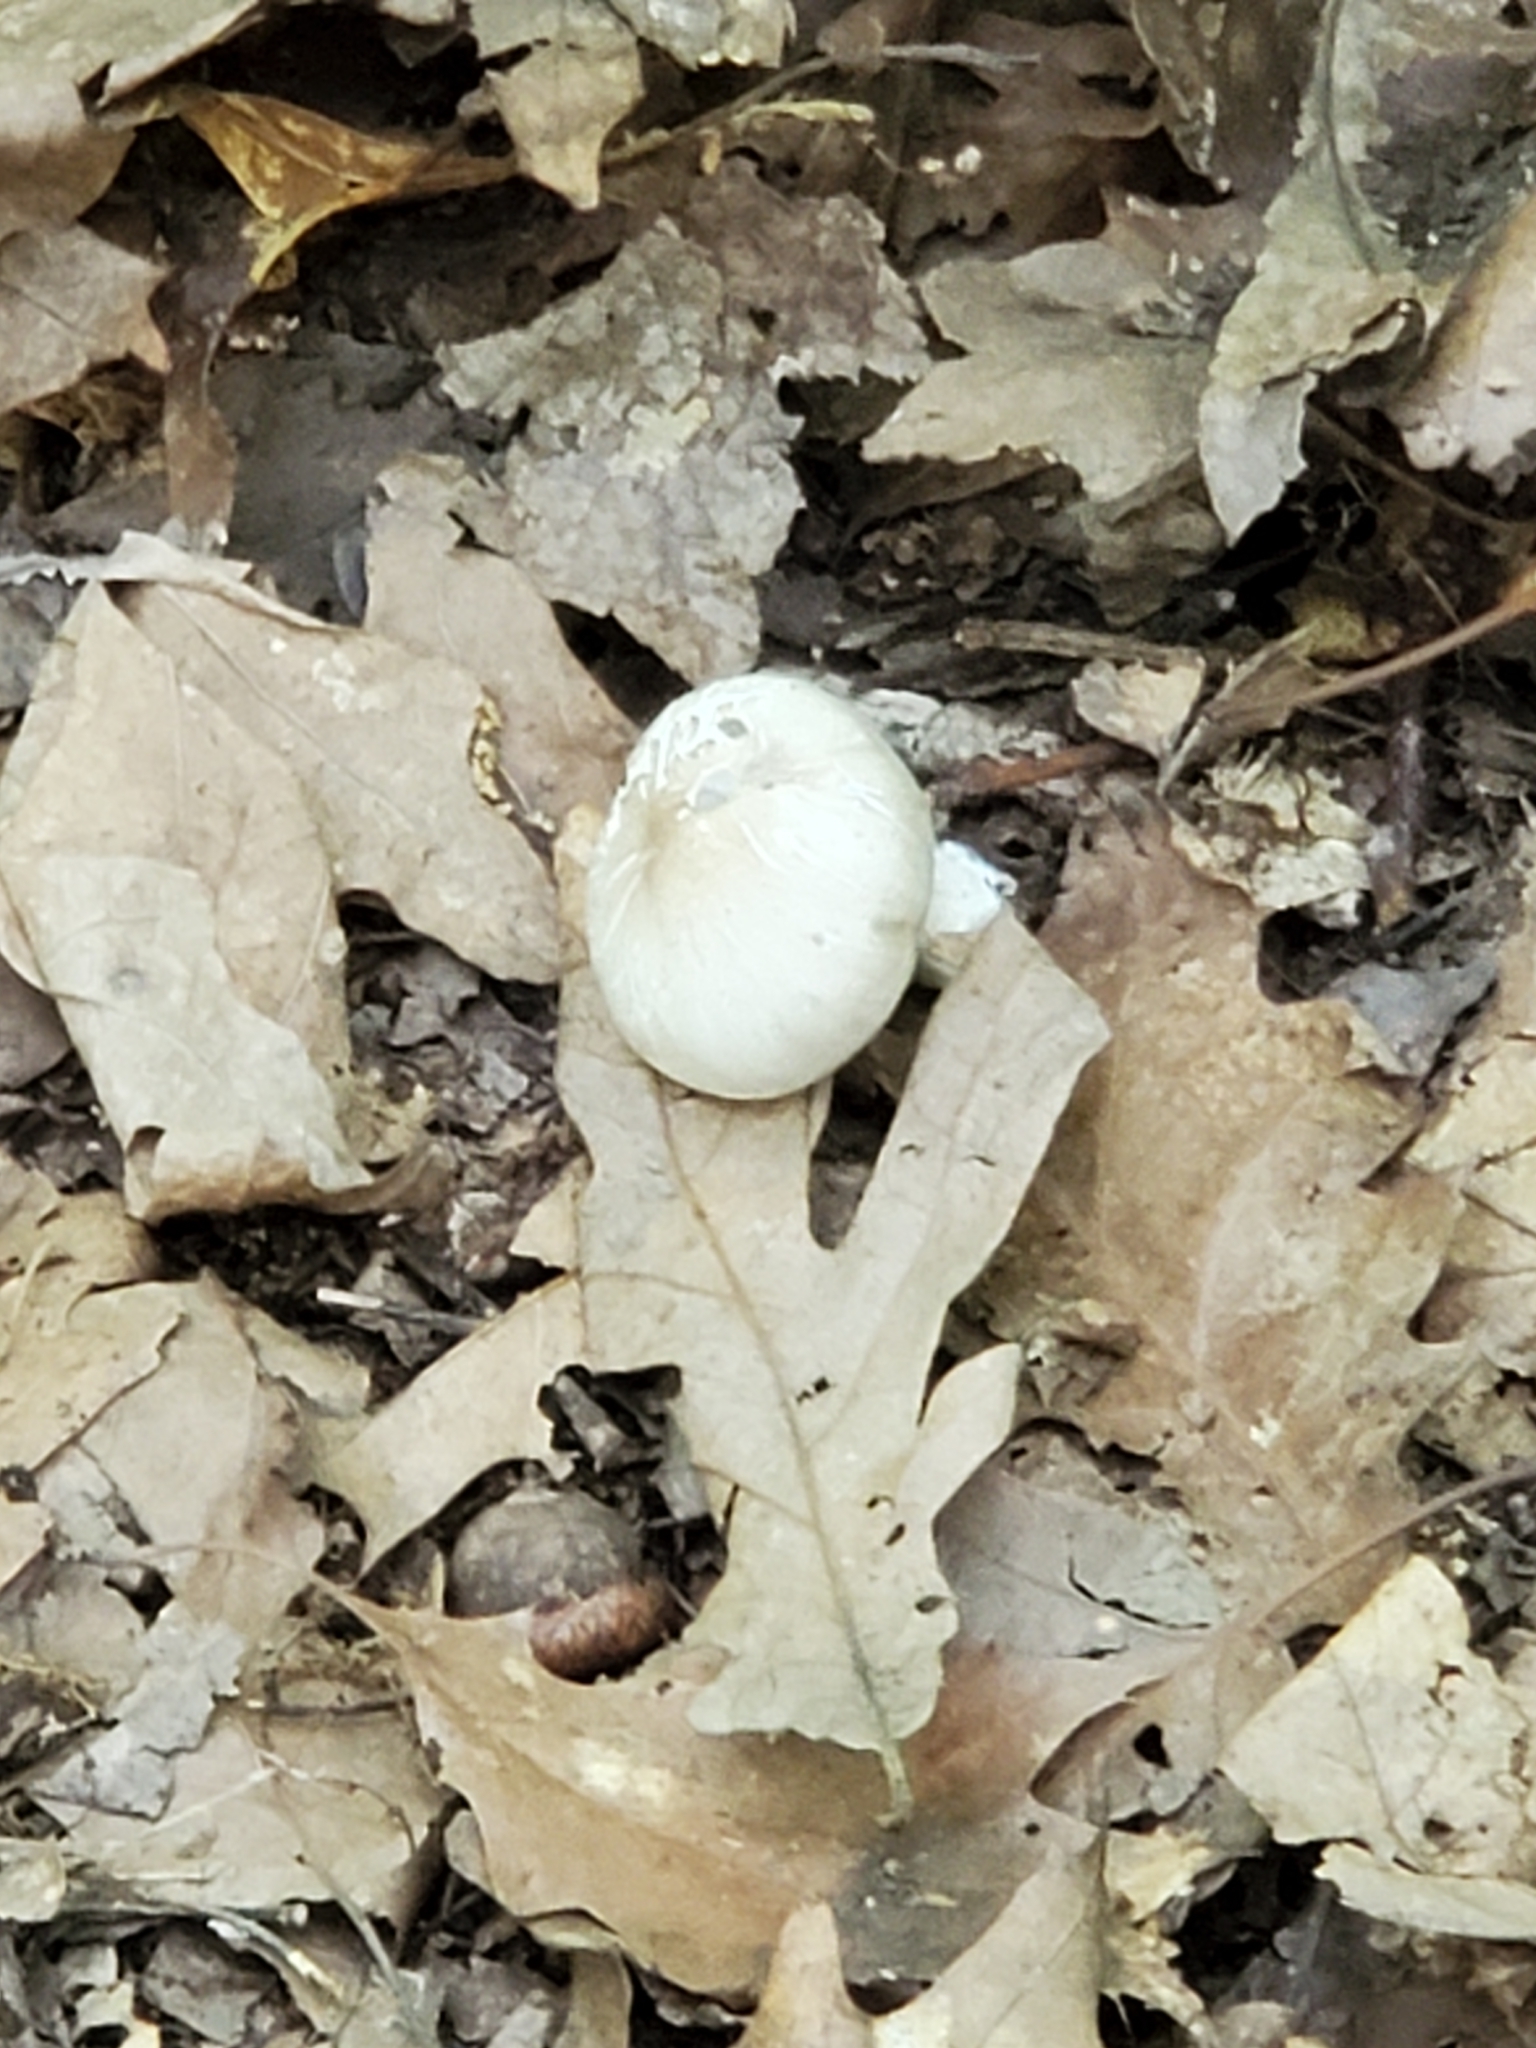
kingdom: Fungi
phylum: Basidiomycota
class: Agaricomycetes
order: Agaricales
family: Tricholomataceae
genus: Megacollybia
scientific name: Megacollybia rodmanii
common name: Eastern american platterful mushroom
